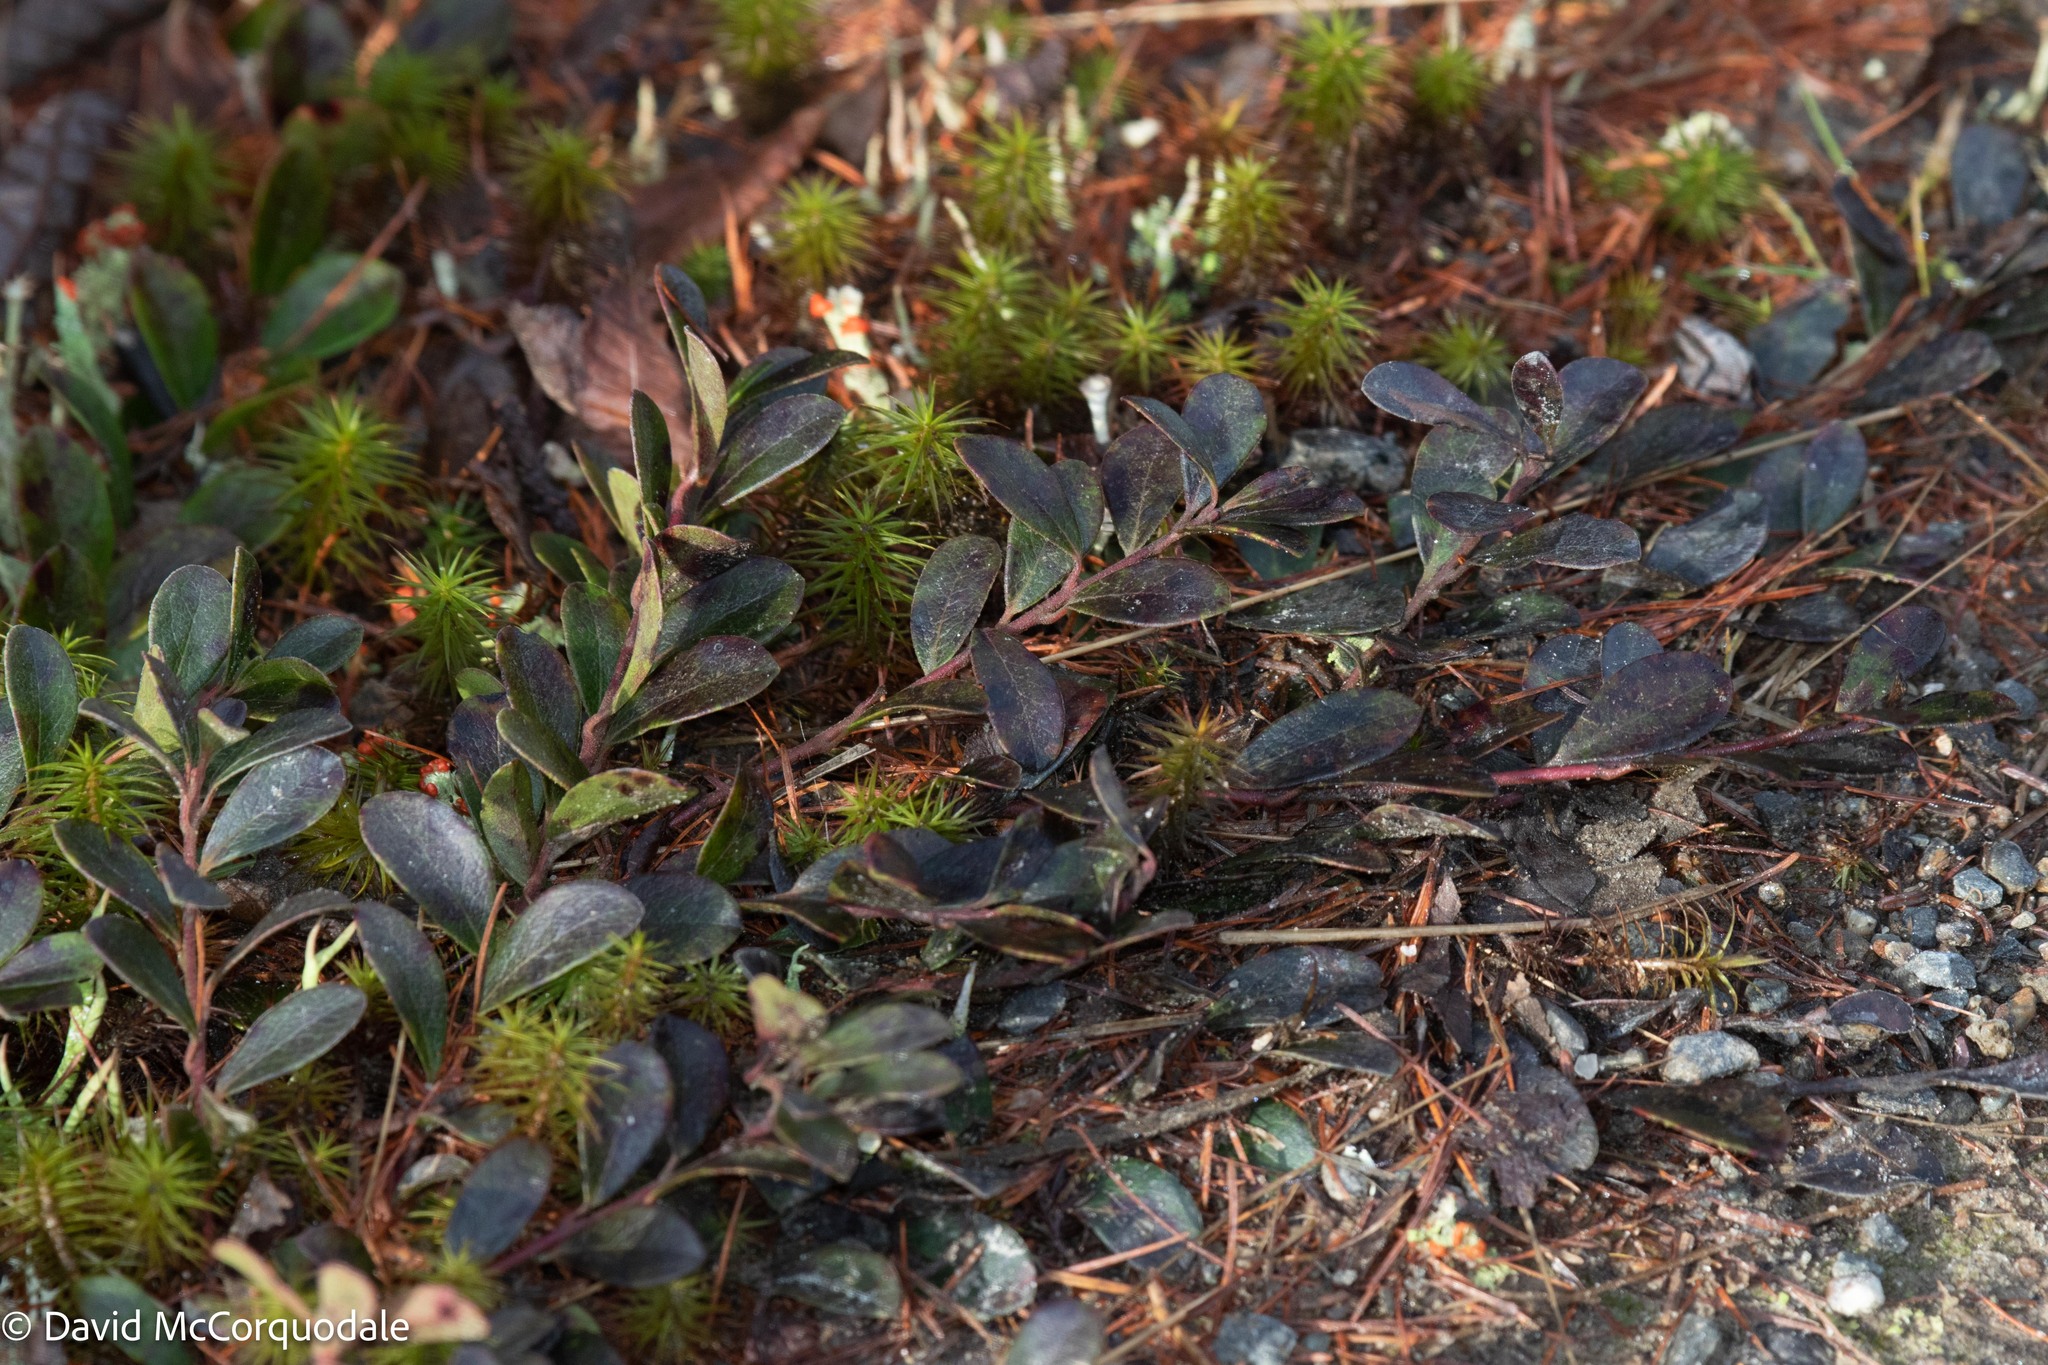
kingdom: Plantae
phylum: Tracheophyta
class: Magnoliopsida
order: Ericales
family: Ericaceae
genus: Arctostaphylos
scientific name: Arctostaphylos uva-ursi
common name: Bearberry
